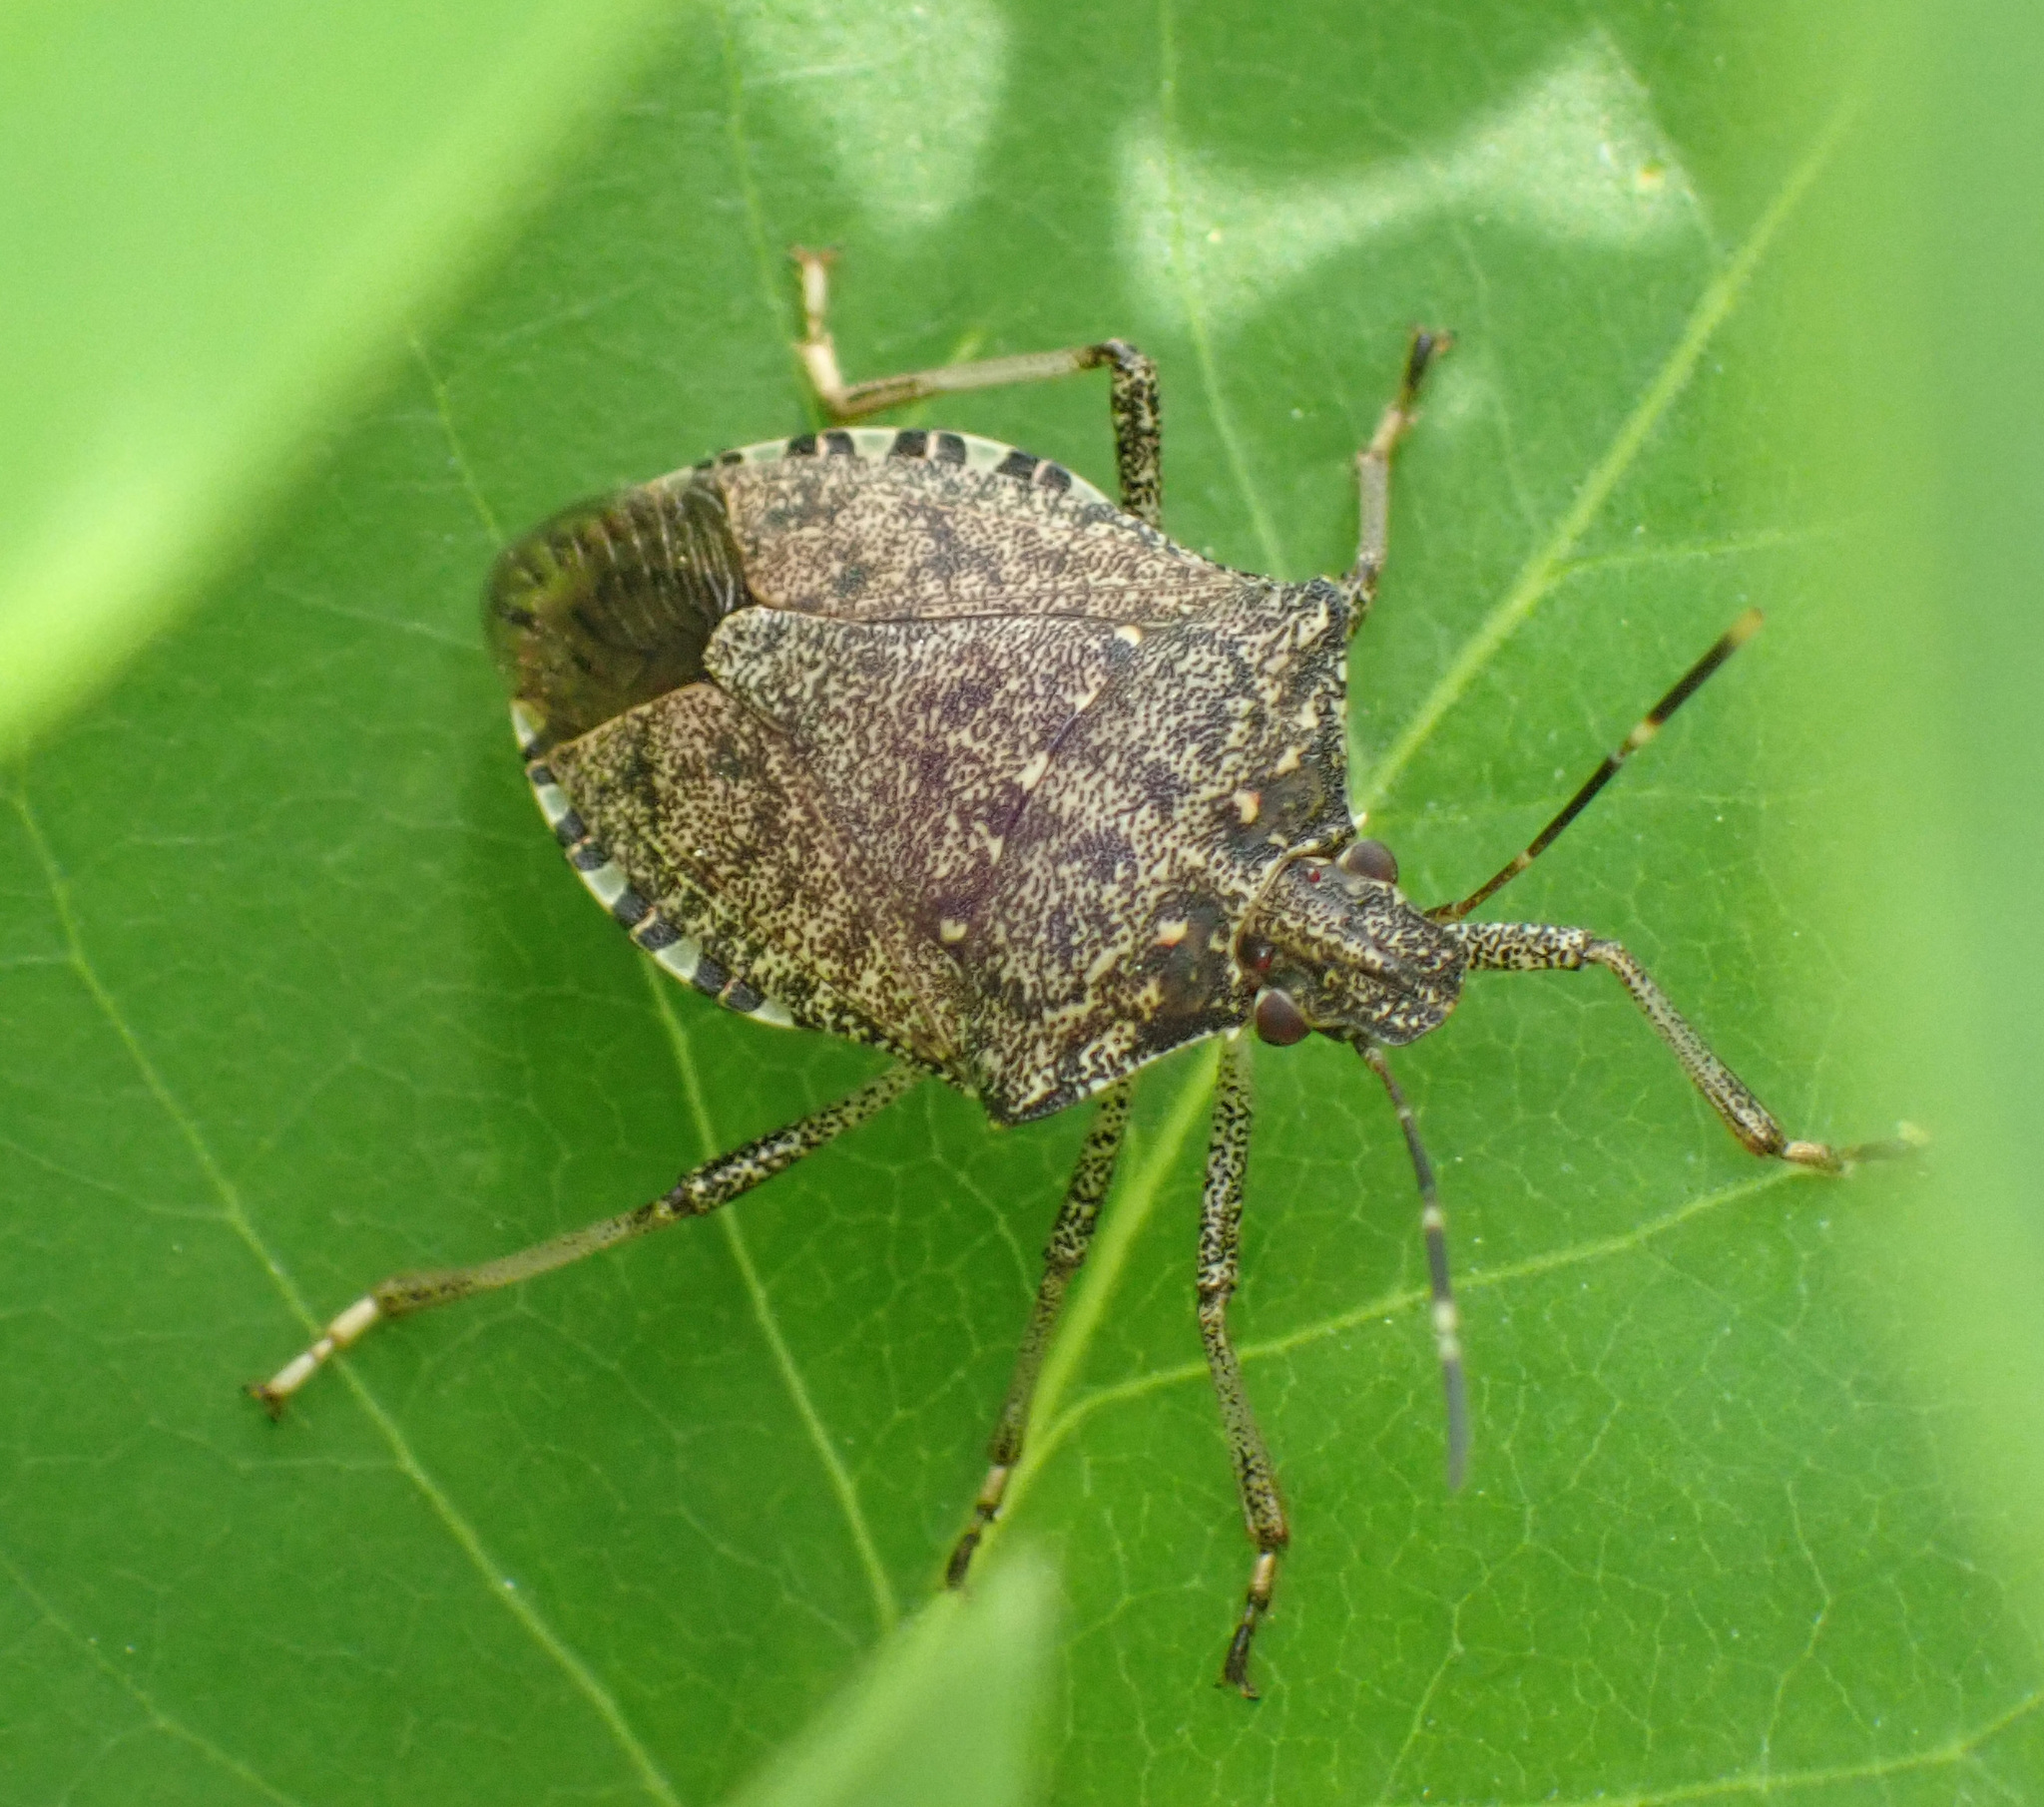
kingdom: Animalia
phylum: Arthropoda
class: Insecta
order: Hemiptera
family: Pentatomidae
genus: Halyomorpha
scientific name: Halyomorpha halys
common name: Brown marmorated stink bug
